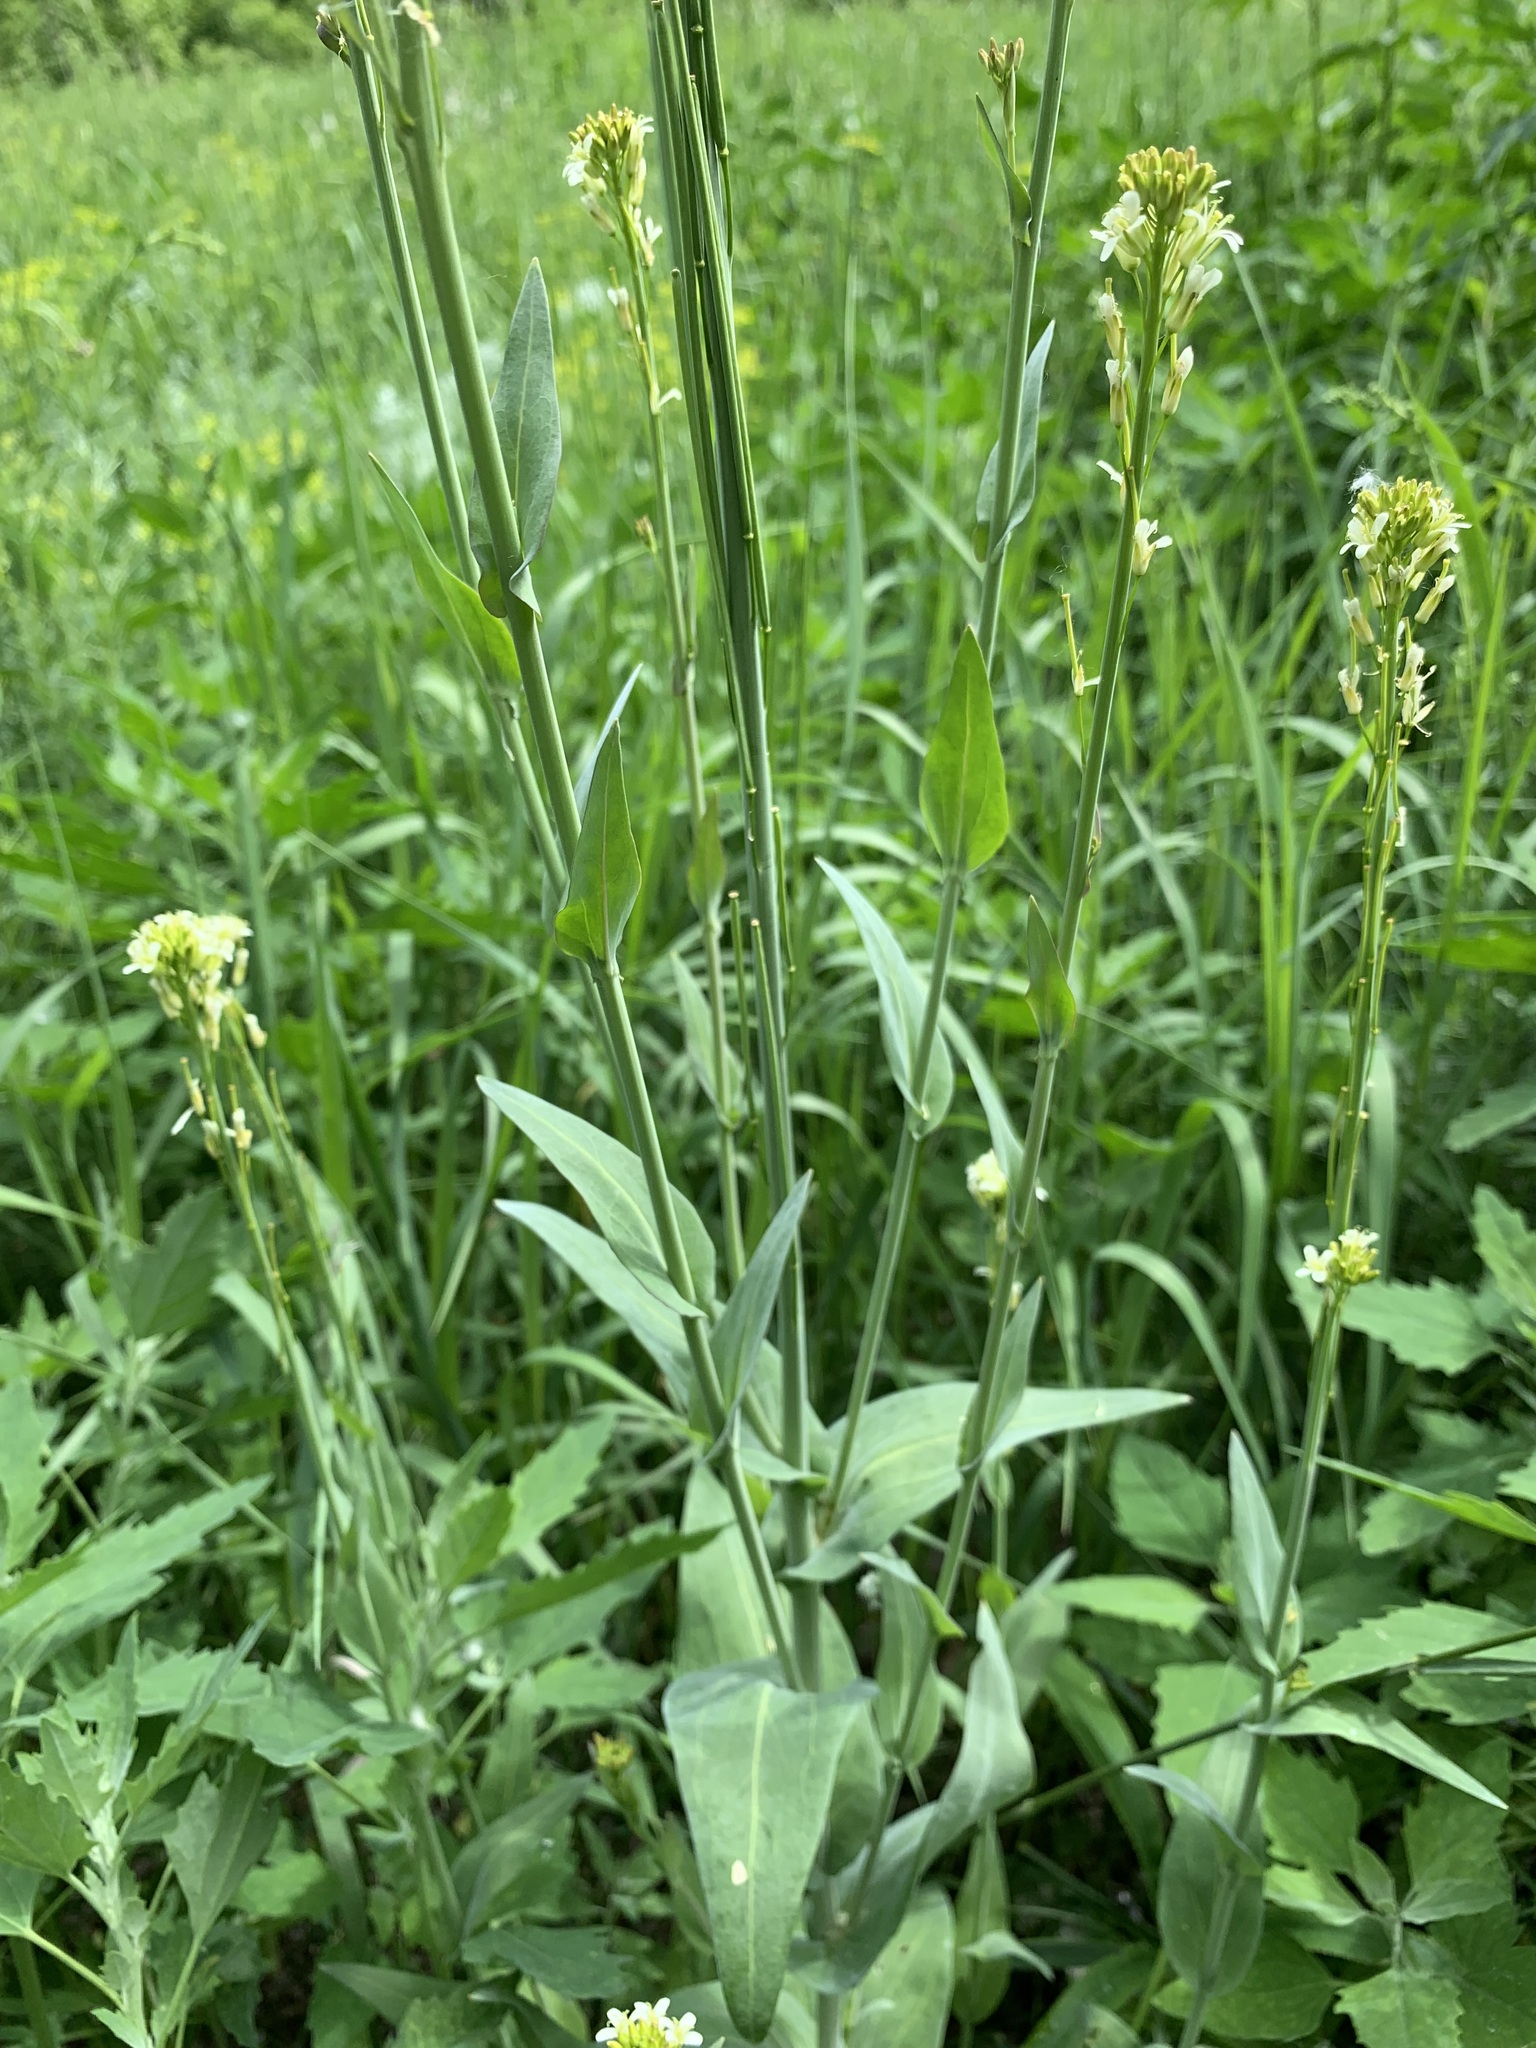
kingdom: Plantae
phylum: Tracheophyta
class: Magnoliopsida
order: Brassicales
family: Brassicaceae
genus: Turritis
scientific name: Turritis glabra
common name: Tower rockcress
